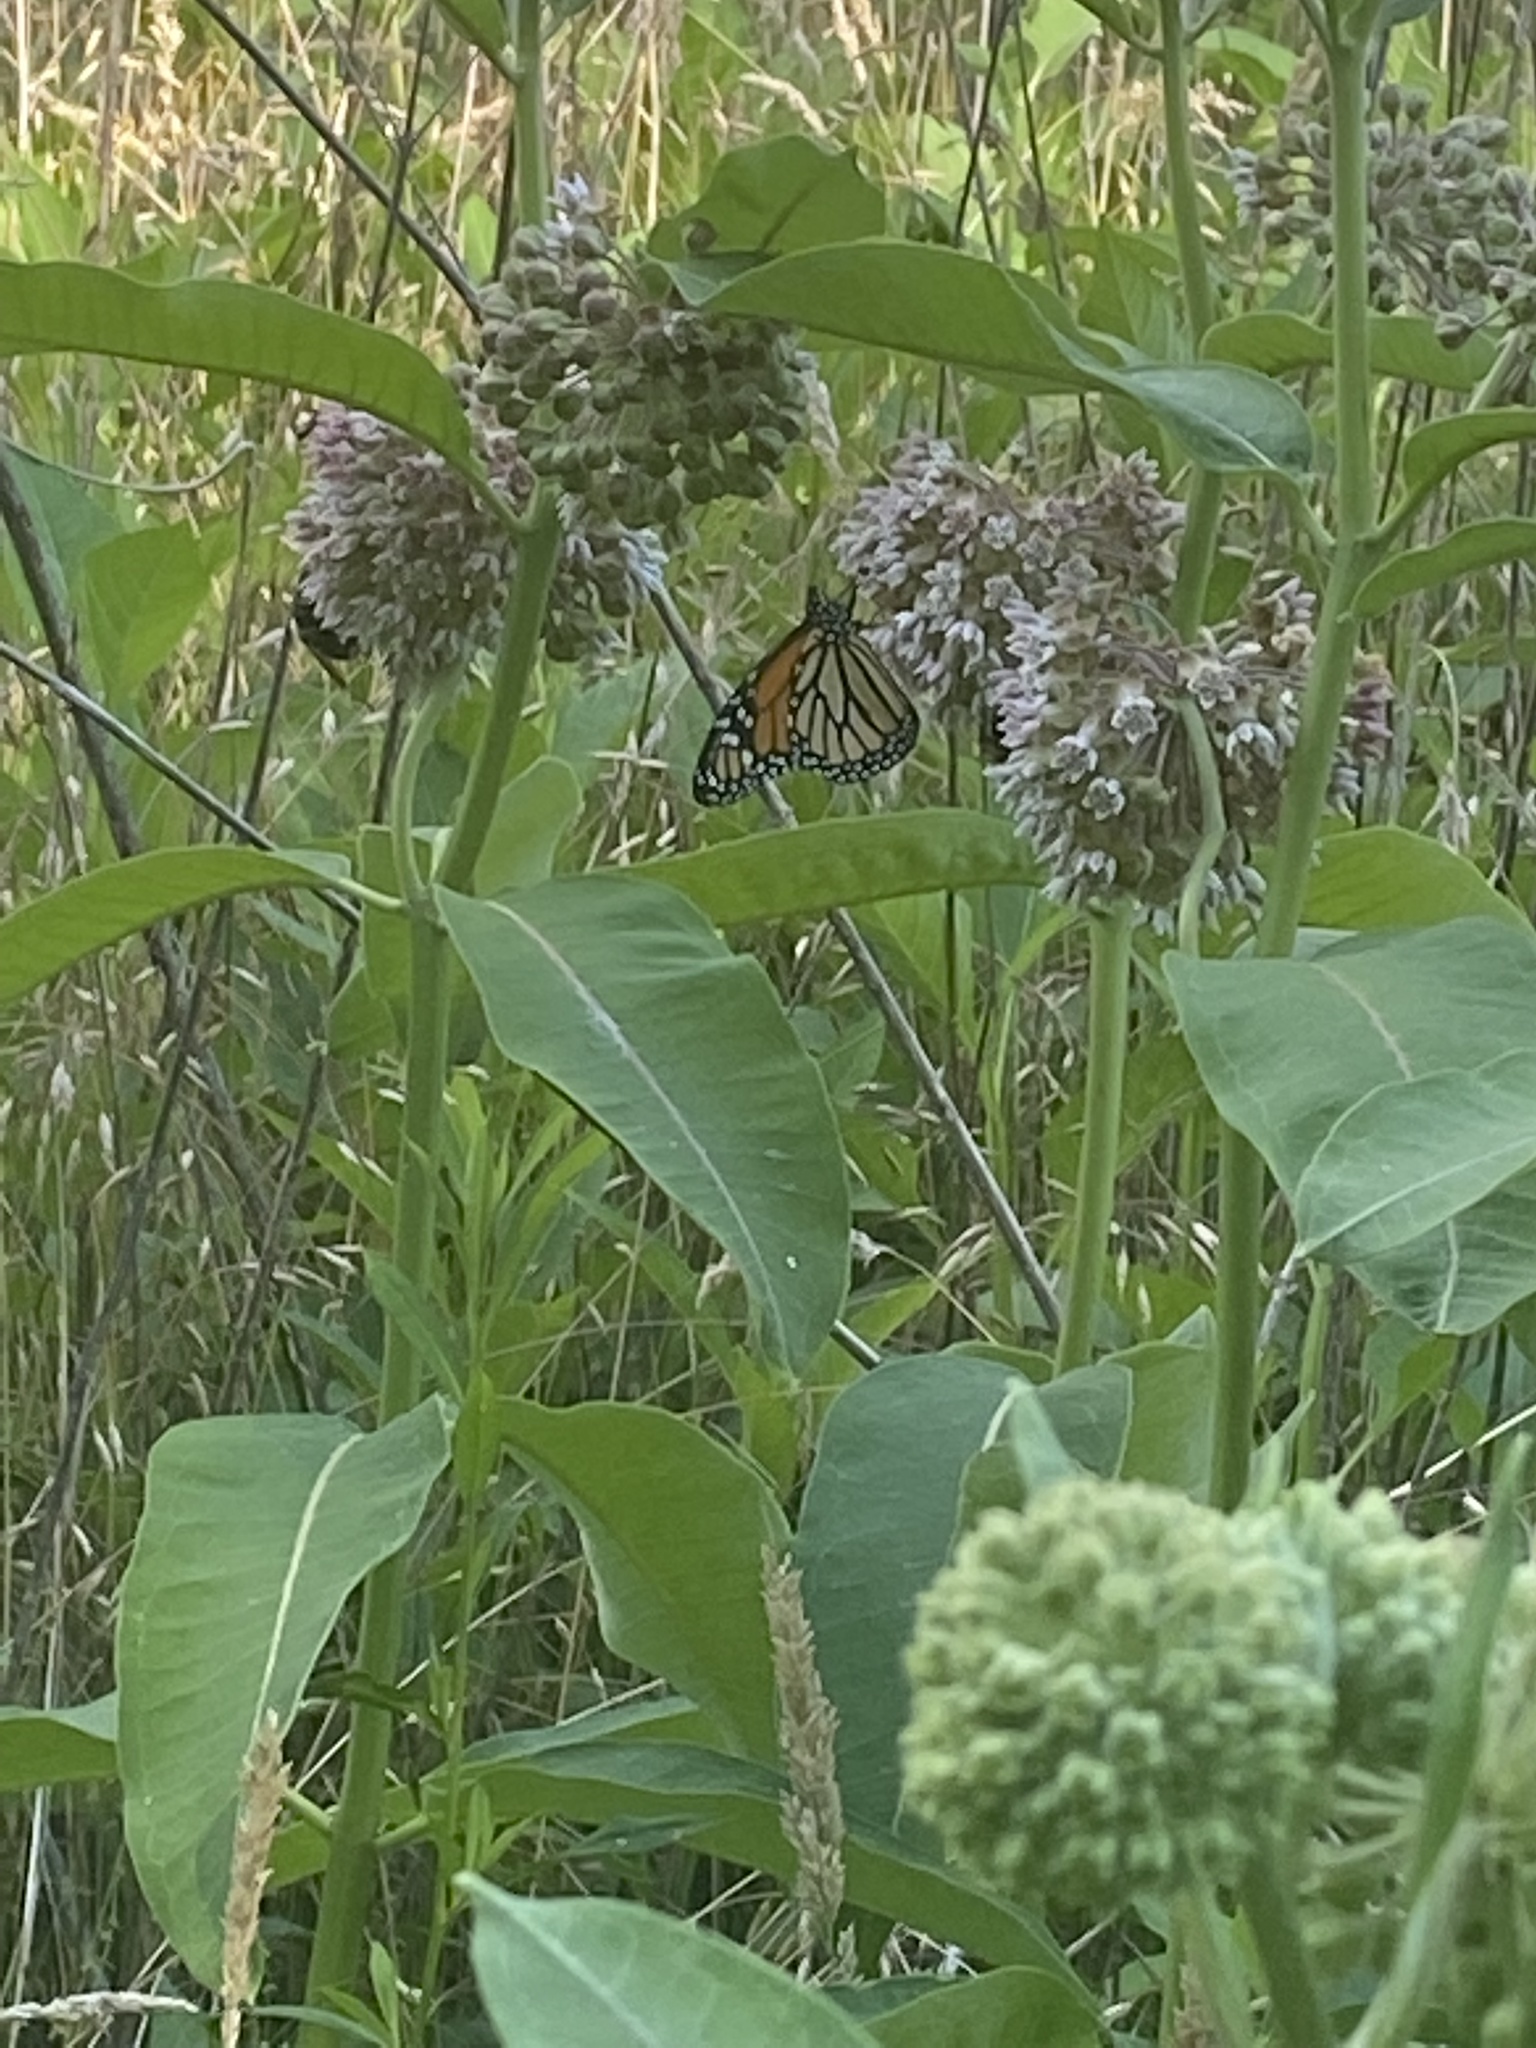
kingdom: Animalia
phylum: Arthropoda
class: Insecta
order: Lepidoptera
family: Nymphalidae
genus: Danaus
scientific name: Danaus plexippus
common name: Monarch
